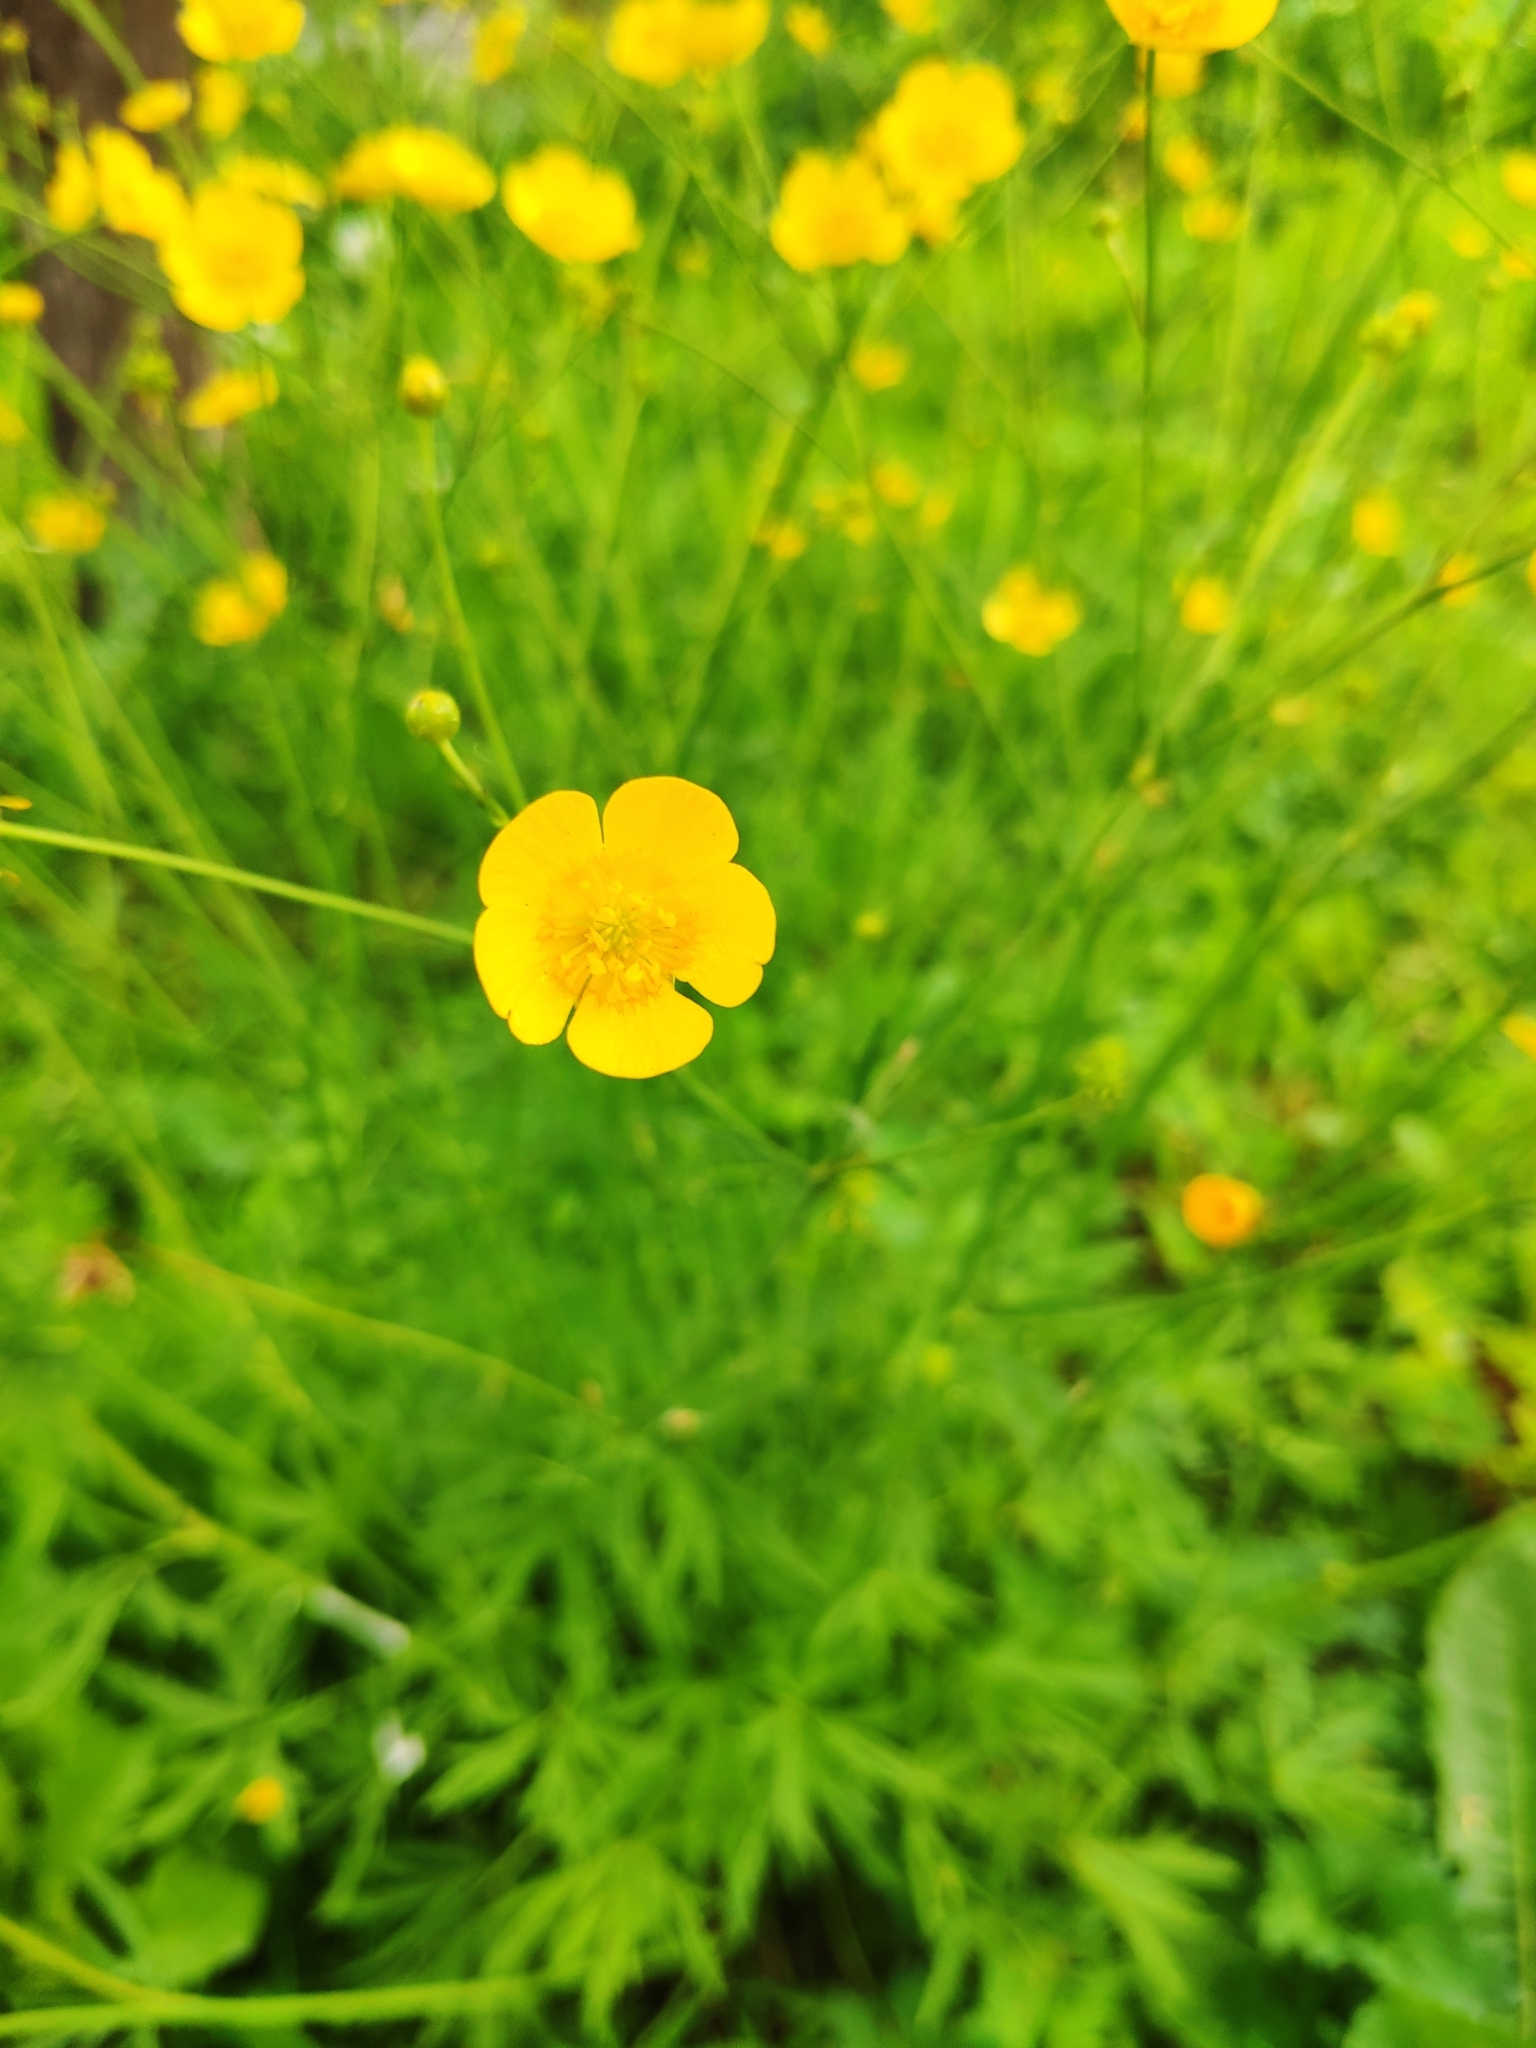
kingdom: Plantae
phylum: Tracheophyta
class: Magnoliopsida
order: Ranunculales
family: Ranunculaceae
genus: Ranunculus
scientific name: Ranunculus acris
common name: Meadow buttercup
